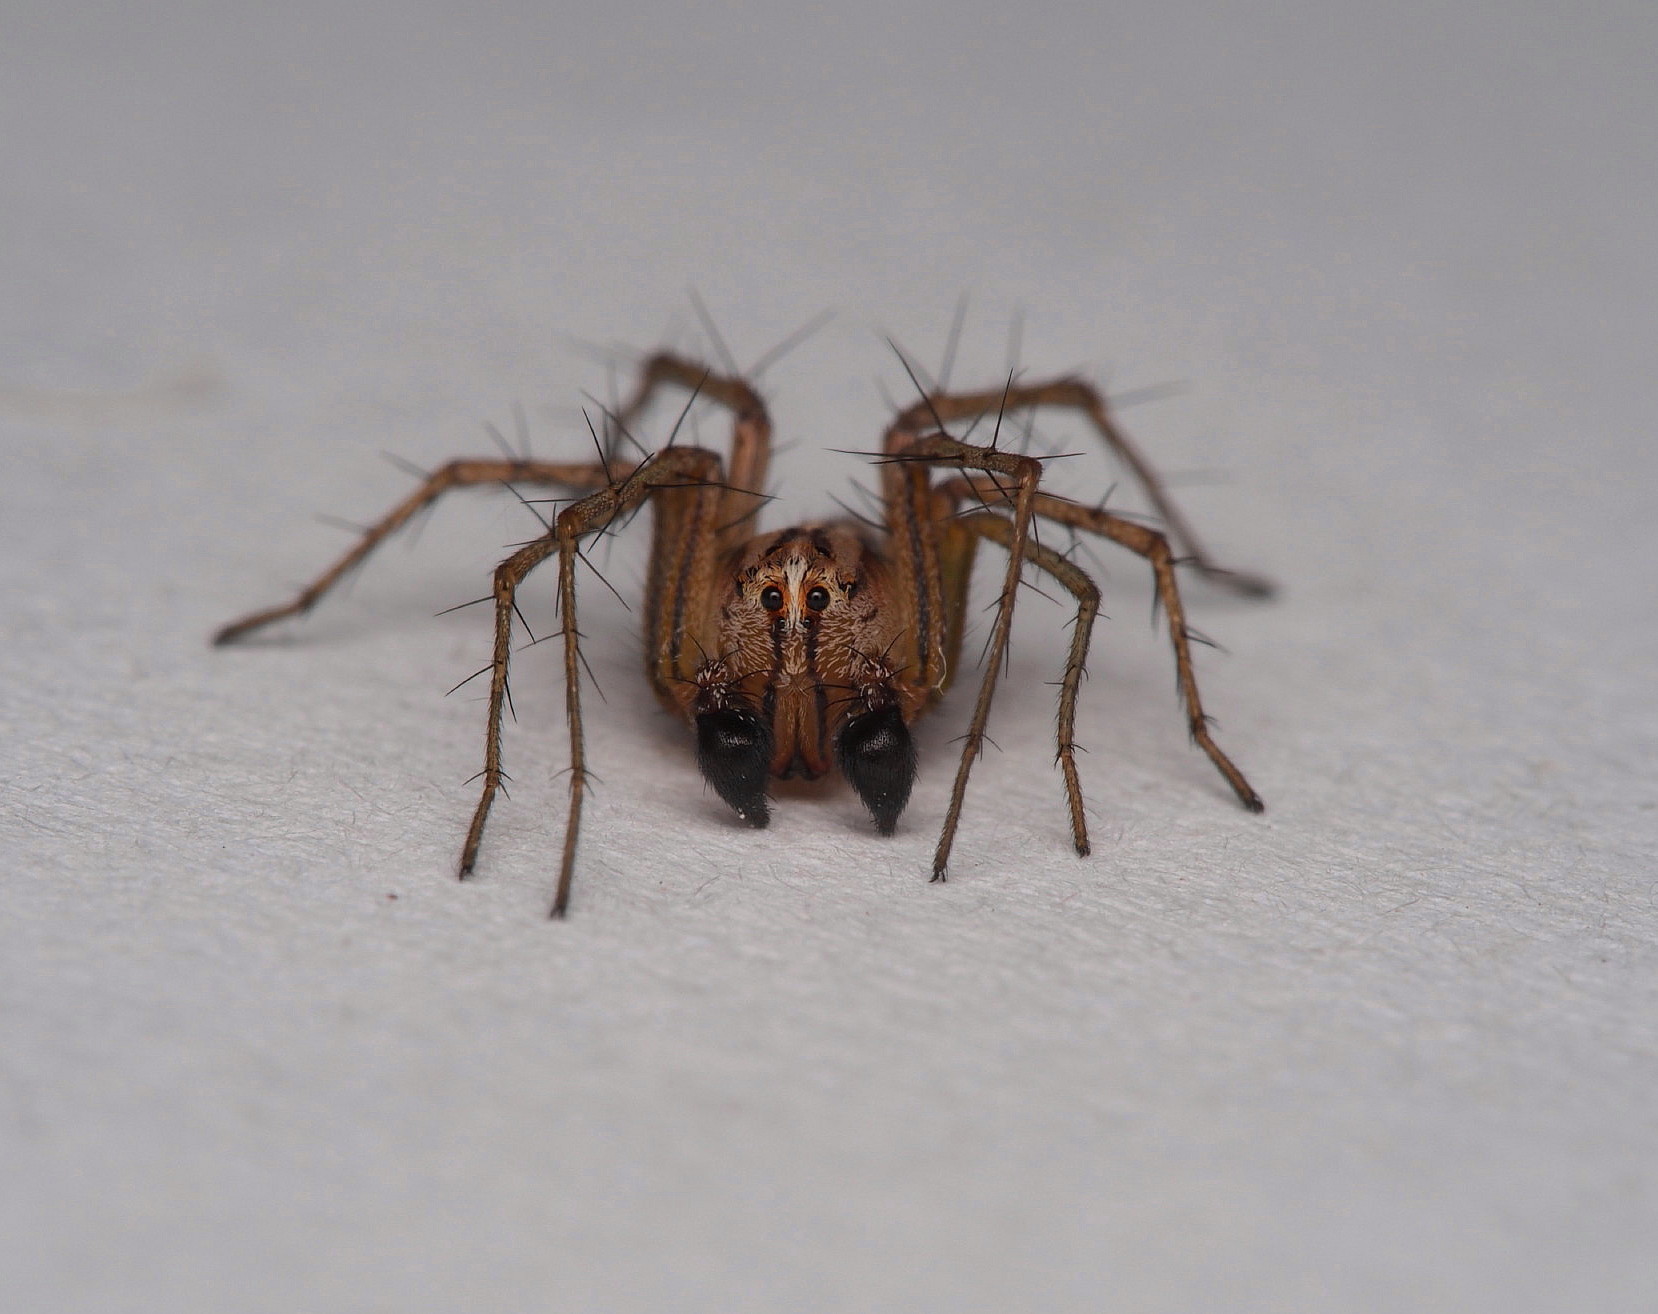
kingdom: Animalia
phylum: Arthropoda
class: Arachnida
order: Araneae
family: Oxyopidae
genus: Oxyopes
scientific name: Oxyopes gracilipes
